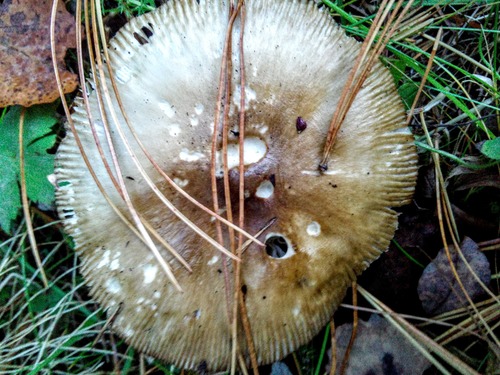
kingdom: Fungi
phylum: Basidiomycota
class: Agaricomycetes
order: Agaricales
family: Amanitaceae
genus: Amanita
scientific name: Amanita fulva
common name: Tawny grisette
